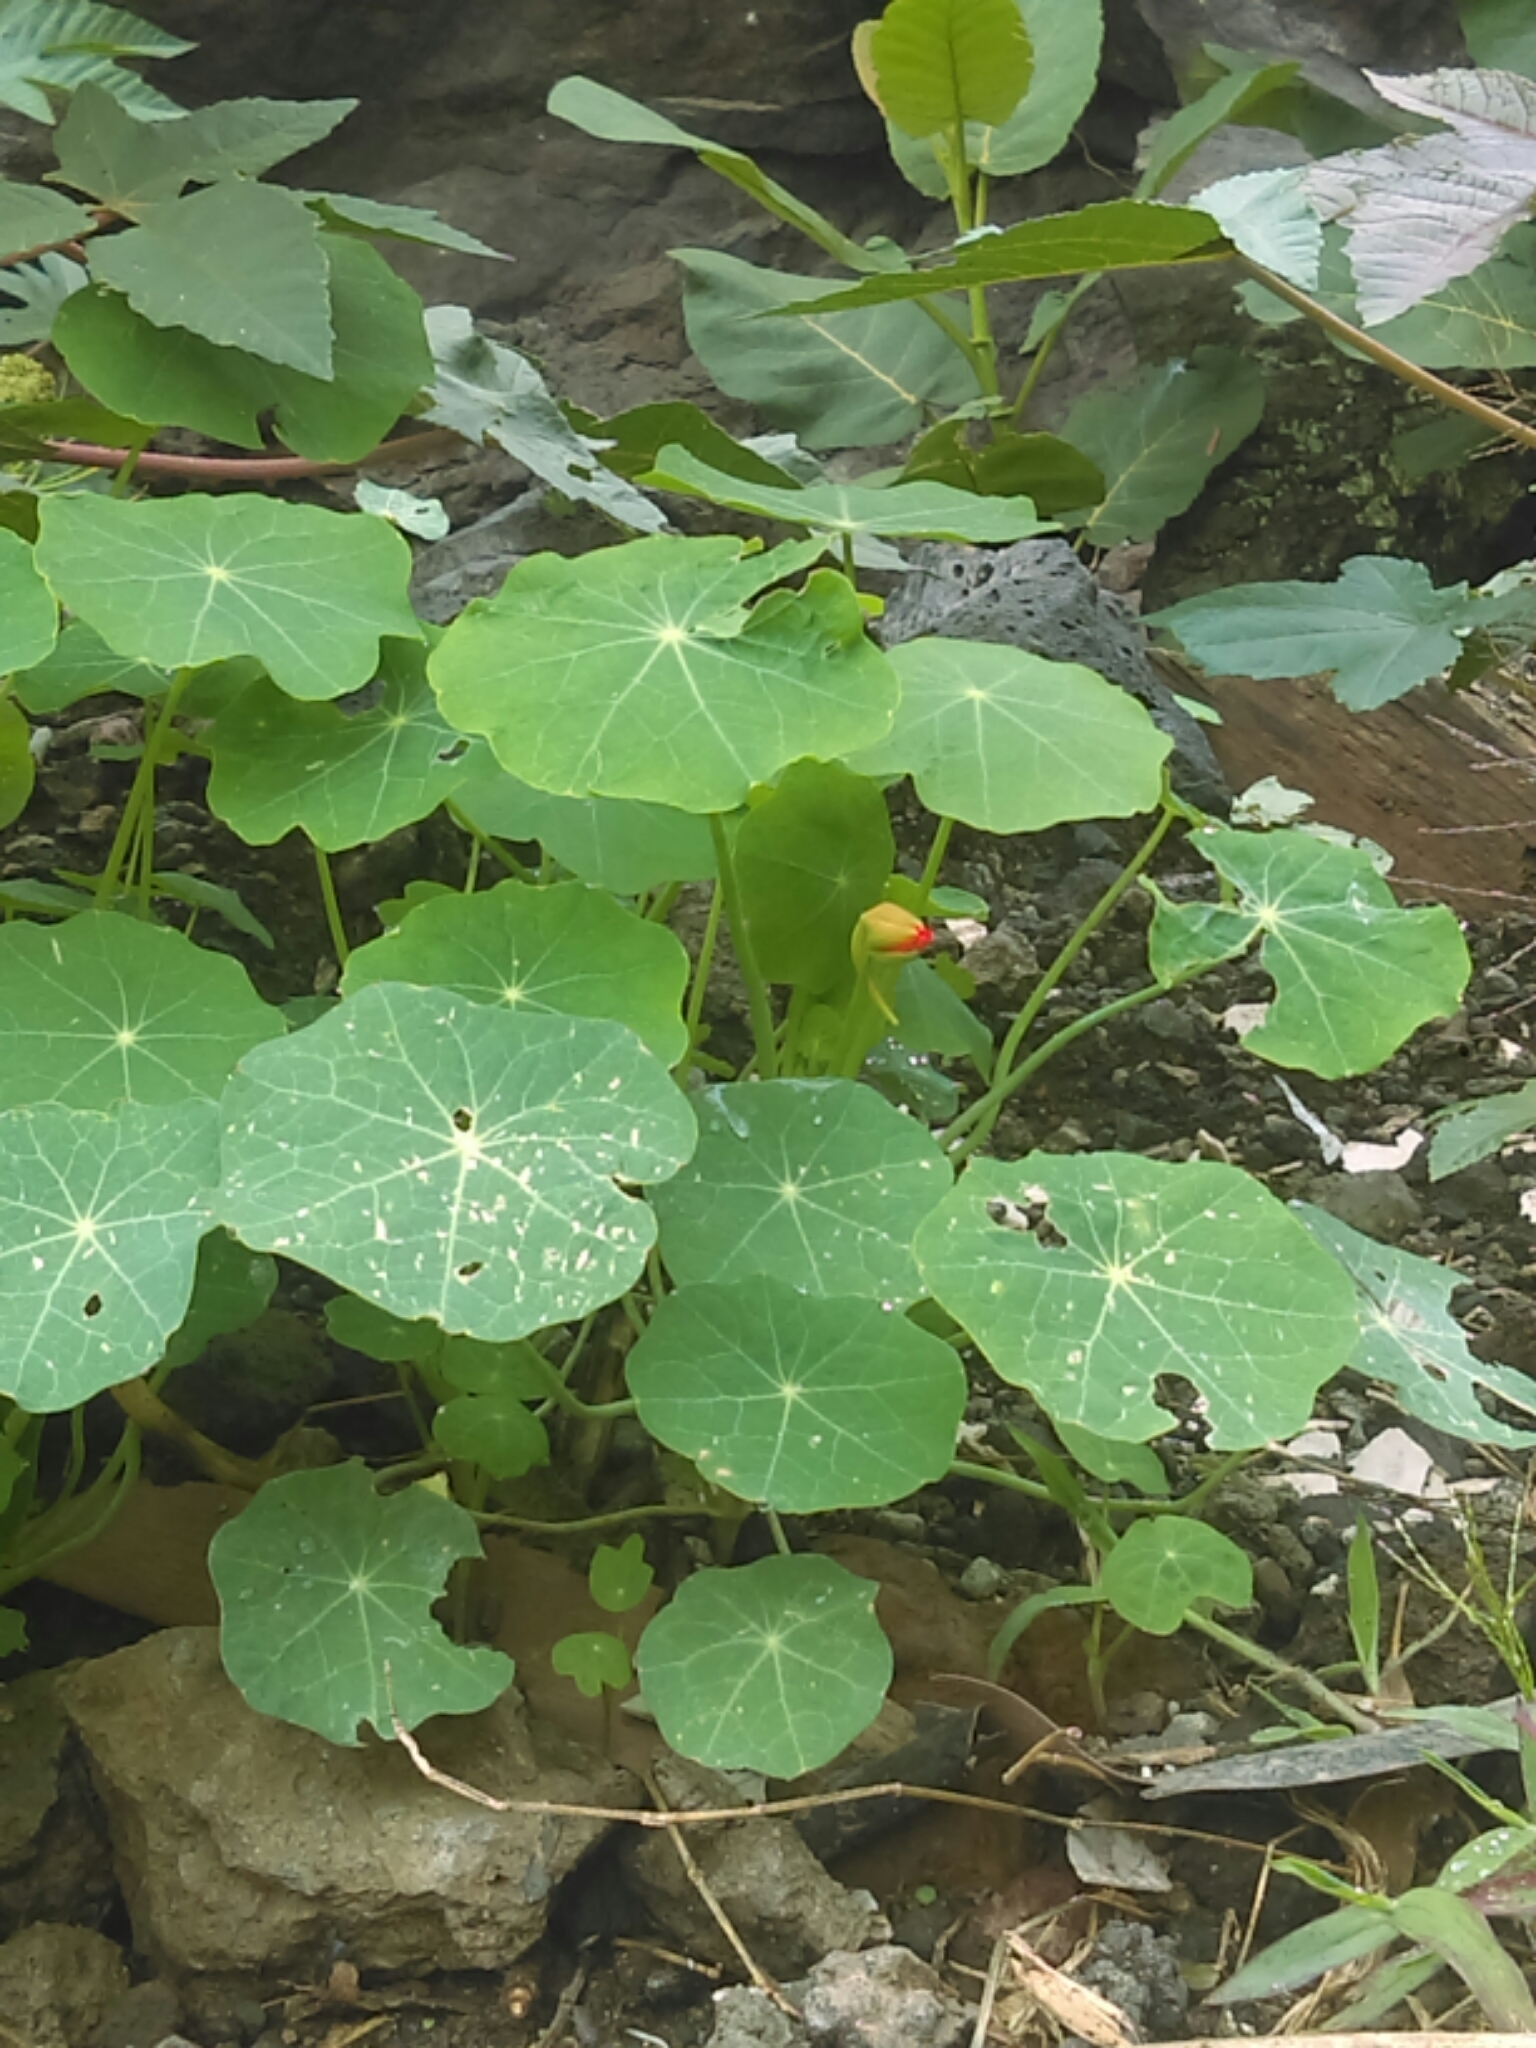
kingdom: Plantae
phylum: Tracheophyta
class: Magnoliopsida
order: Brassicales
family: Tropaeolaceae
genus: Tropaeolum
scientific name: Tropaeolum majus
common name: Nasturtium
